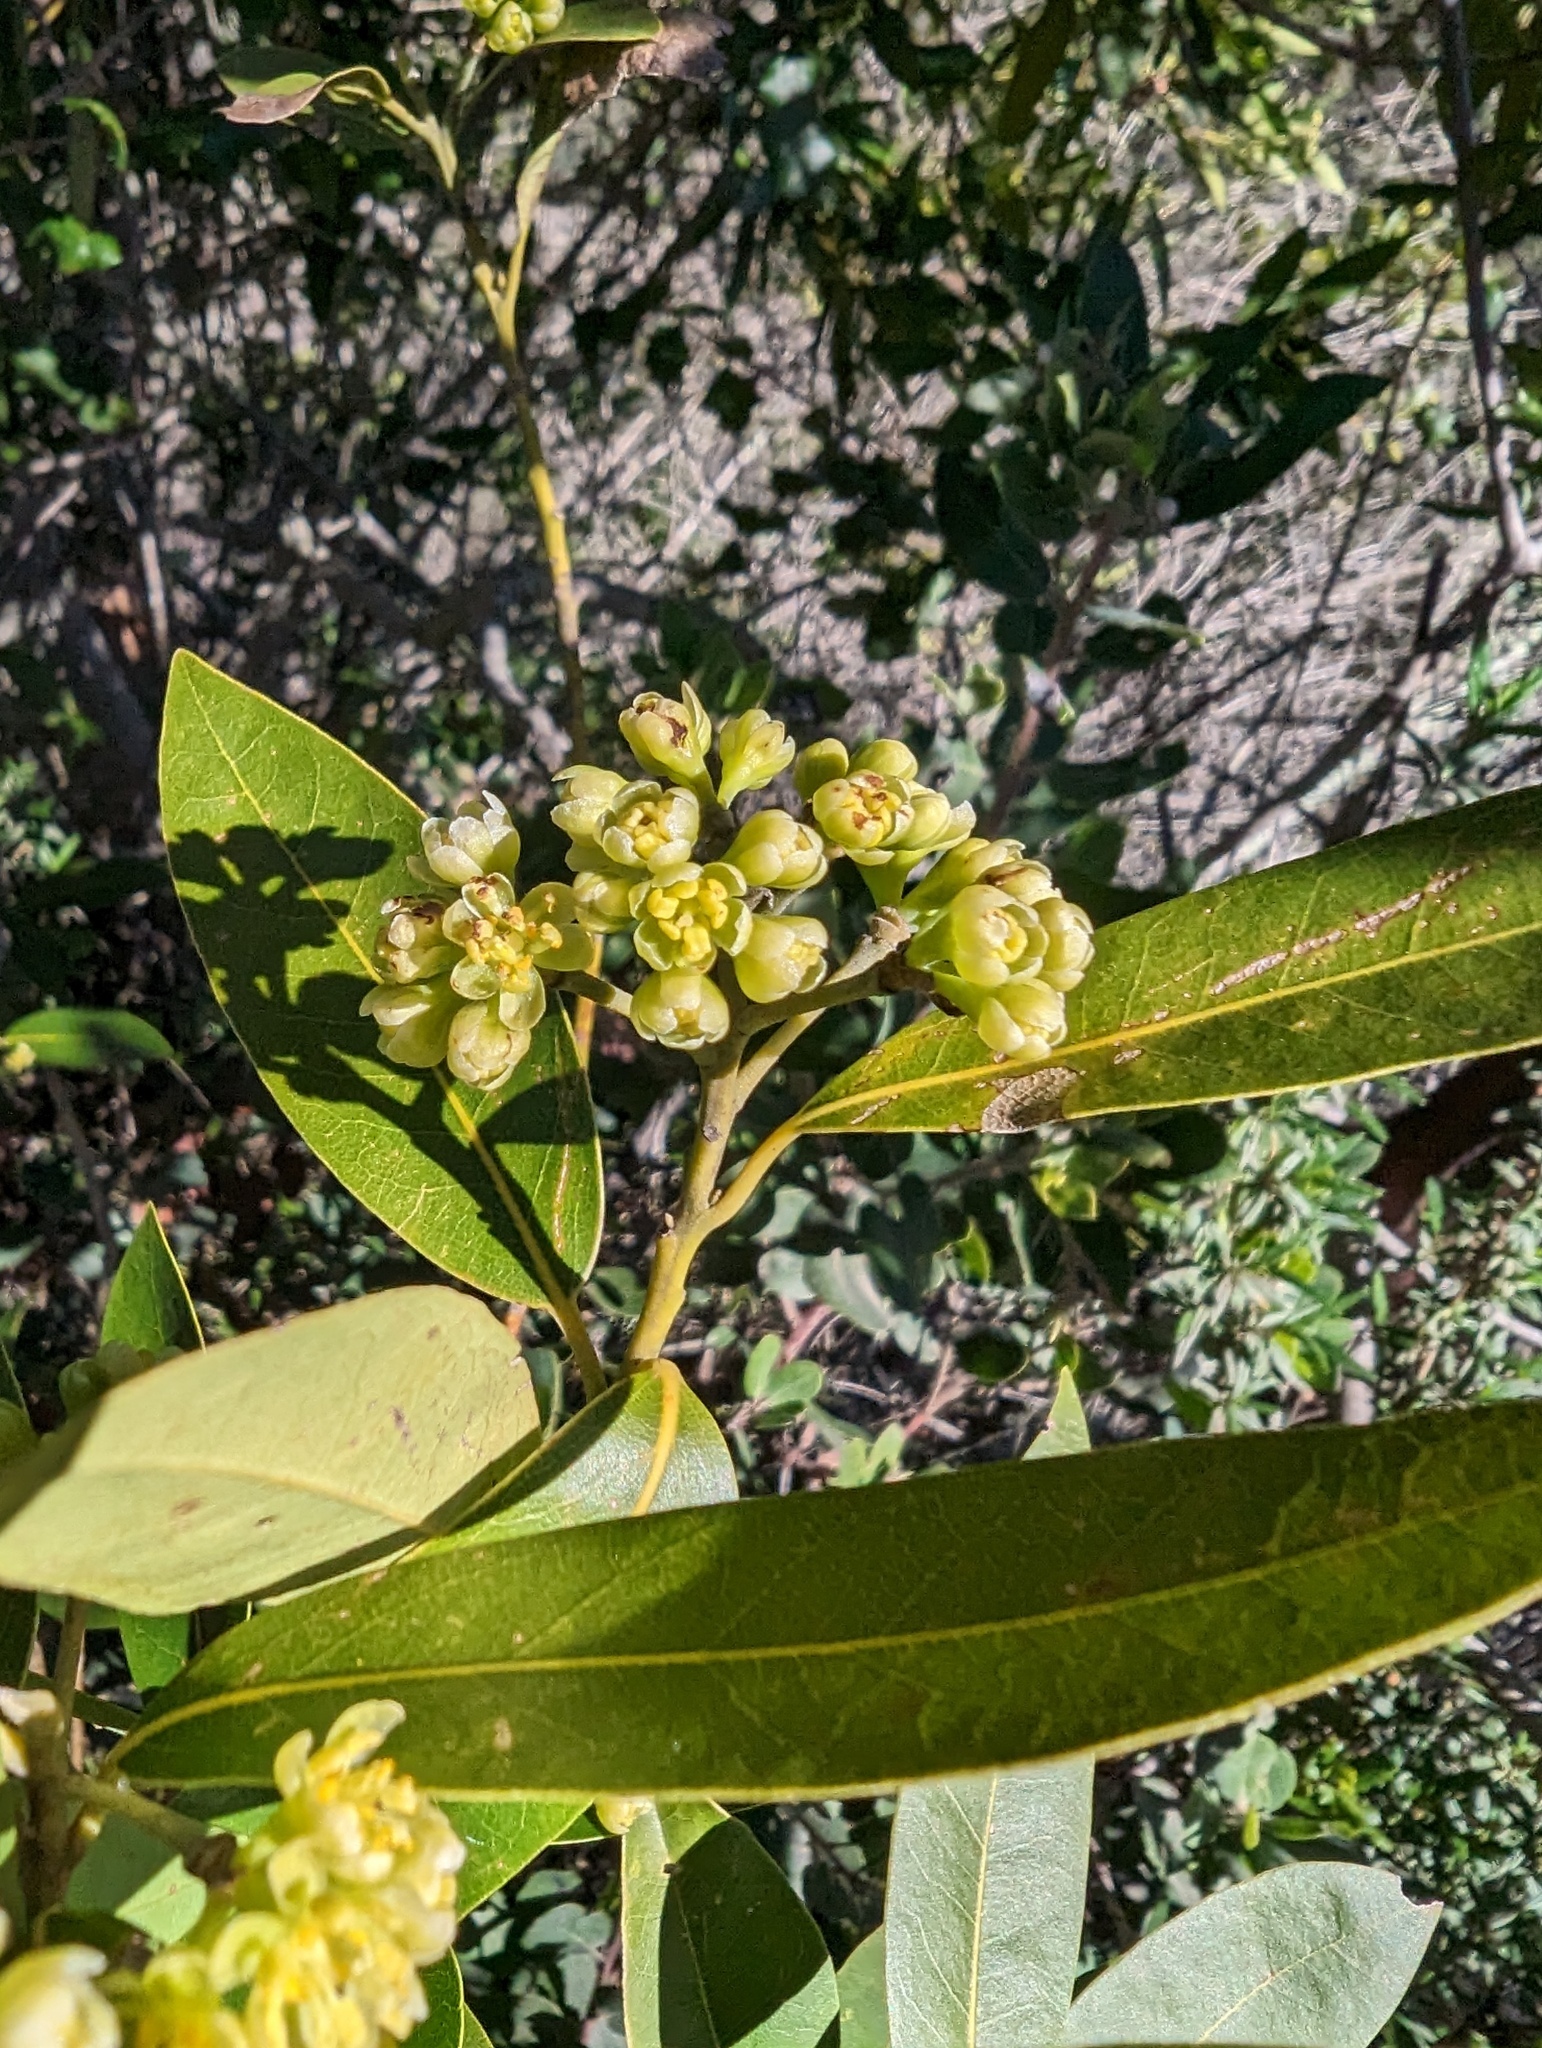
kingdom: Plantae
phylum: Tracheophyta
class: Magnoliopsida
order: Laurales
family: Lauraceae
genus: Umbellularia
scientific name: Umbellularia californica
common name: California bay
